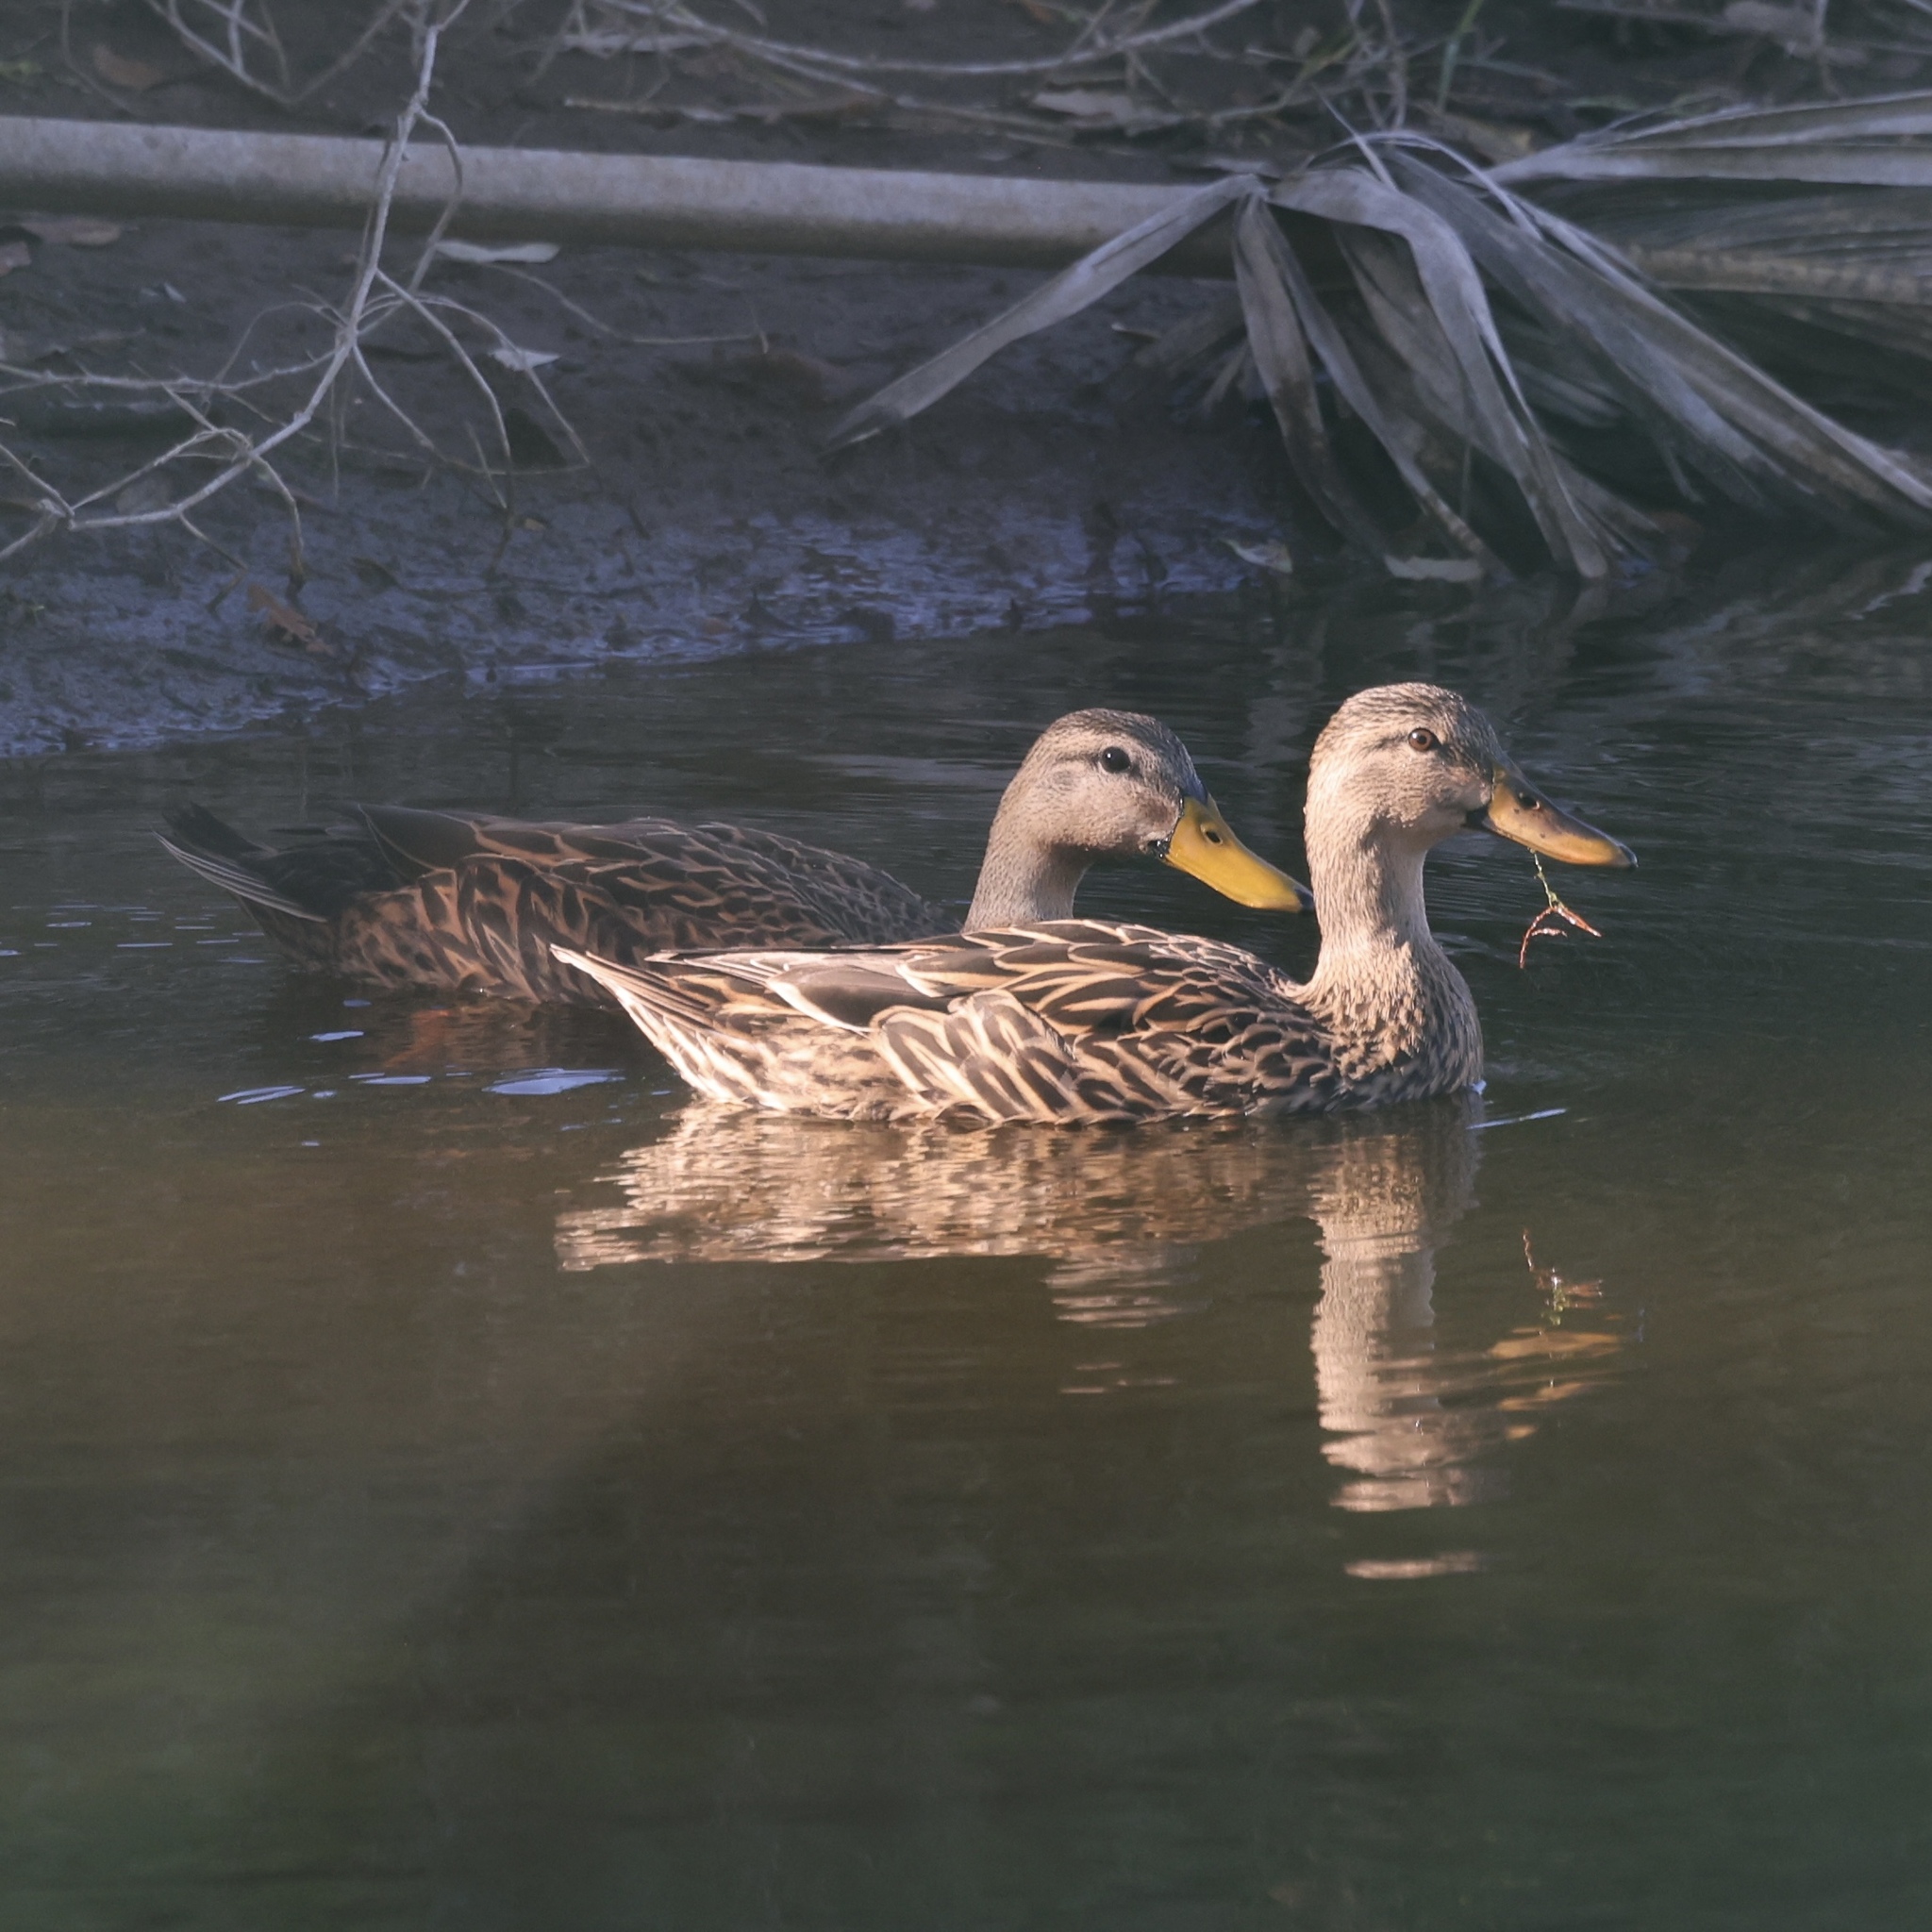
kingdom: Animalia
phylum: Chordata
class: Aves
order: Anseriformes
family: Anatidae
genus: Anas
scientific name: Anas
